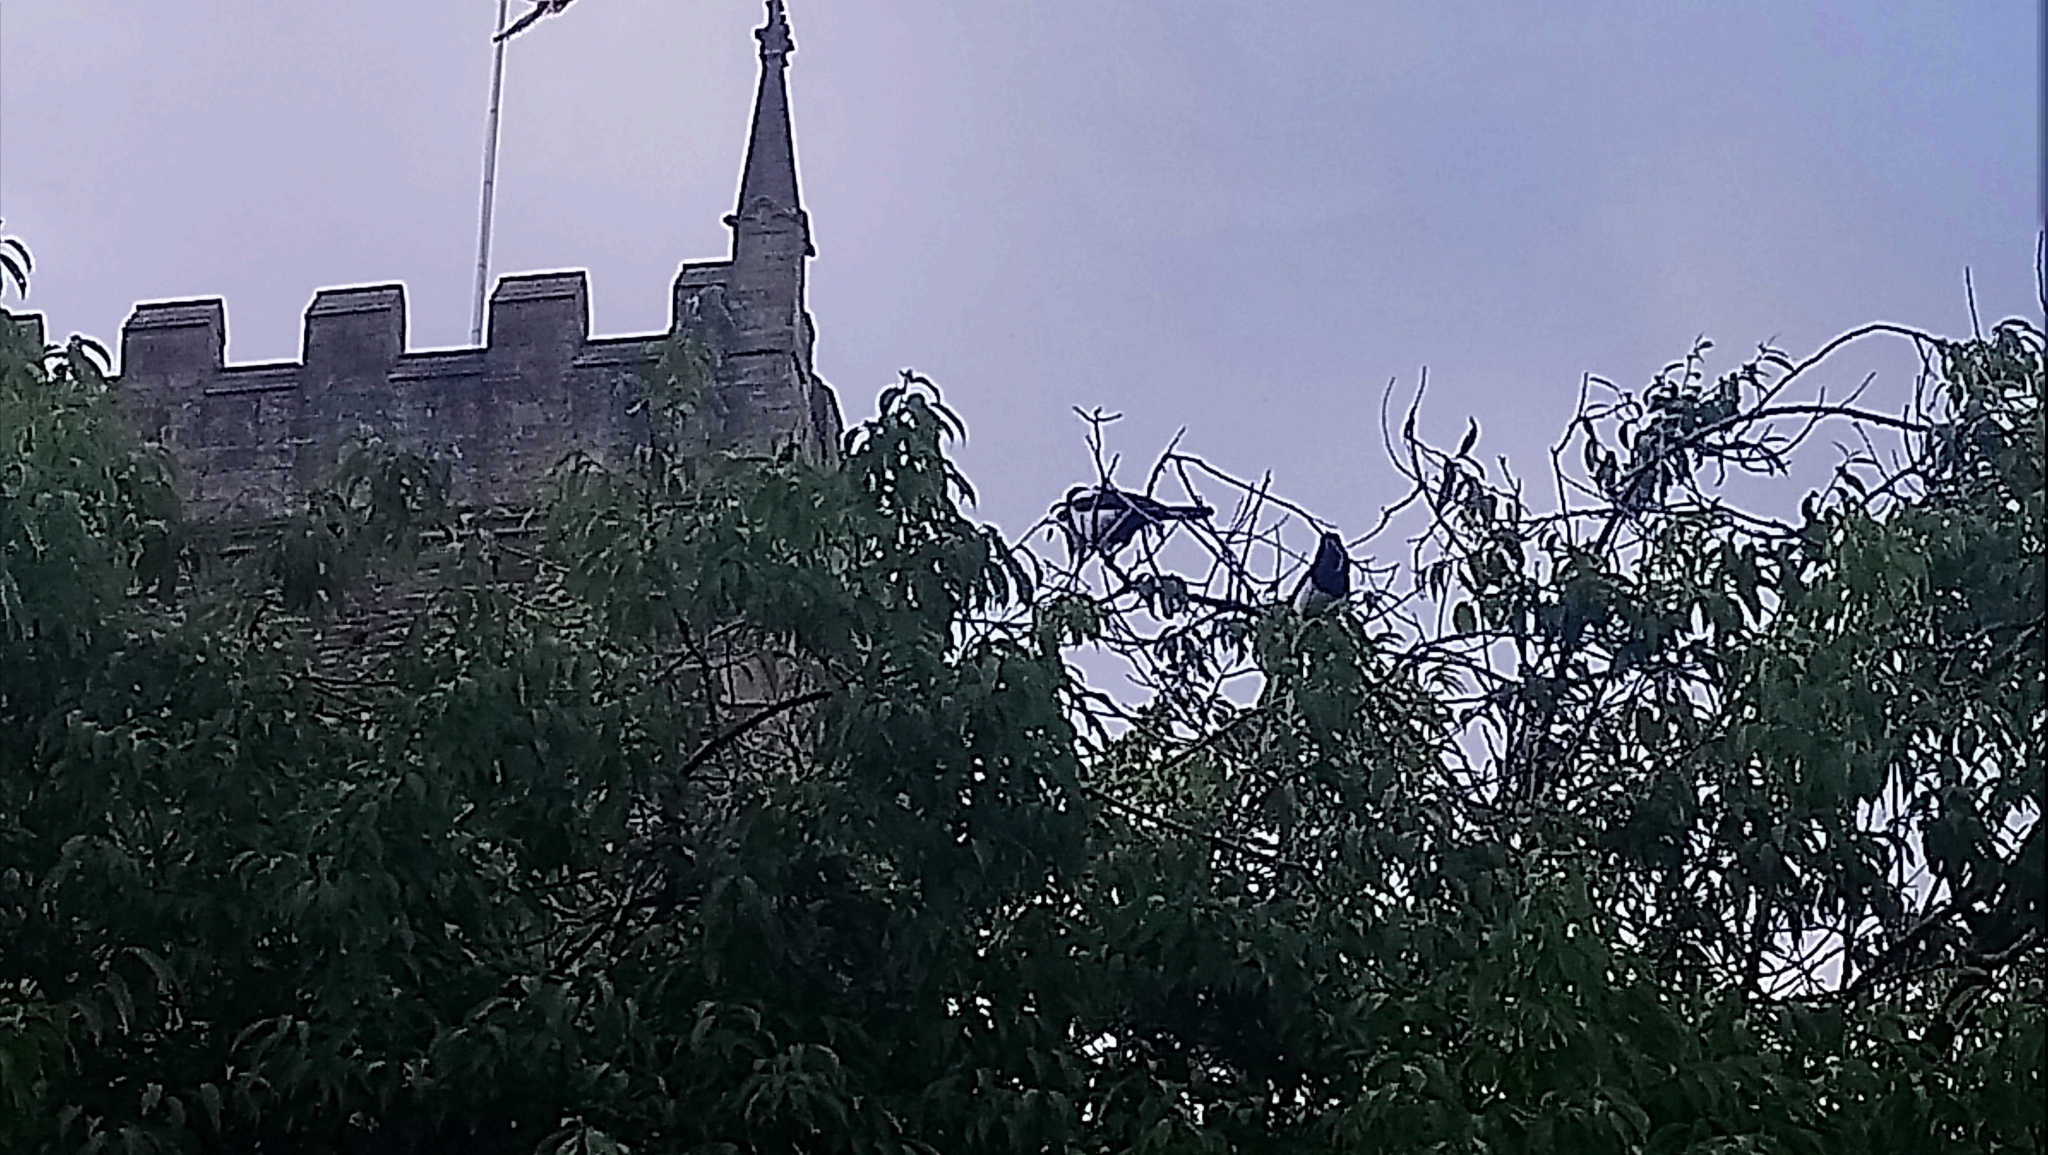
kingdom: Animalia
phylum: Chordata
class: Aves
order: Passeriformes
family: Corvidae
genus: Pica
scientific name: Pica pica
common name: Eurasian magpie
